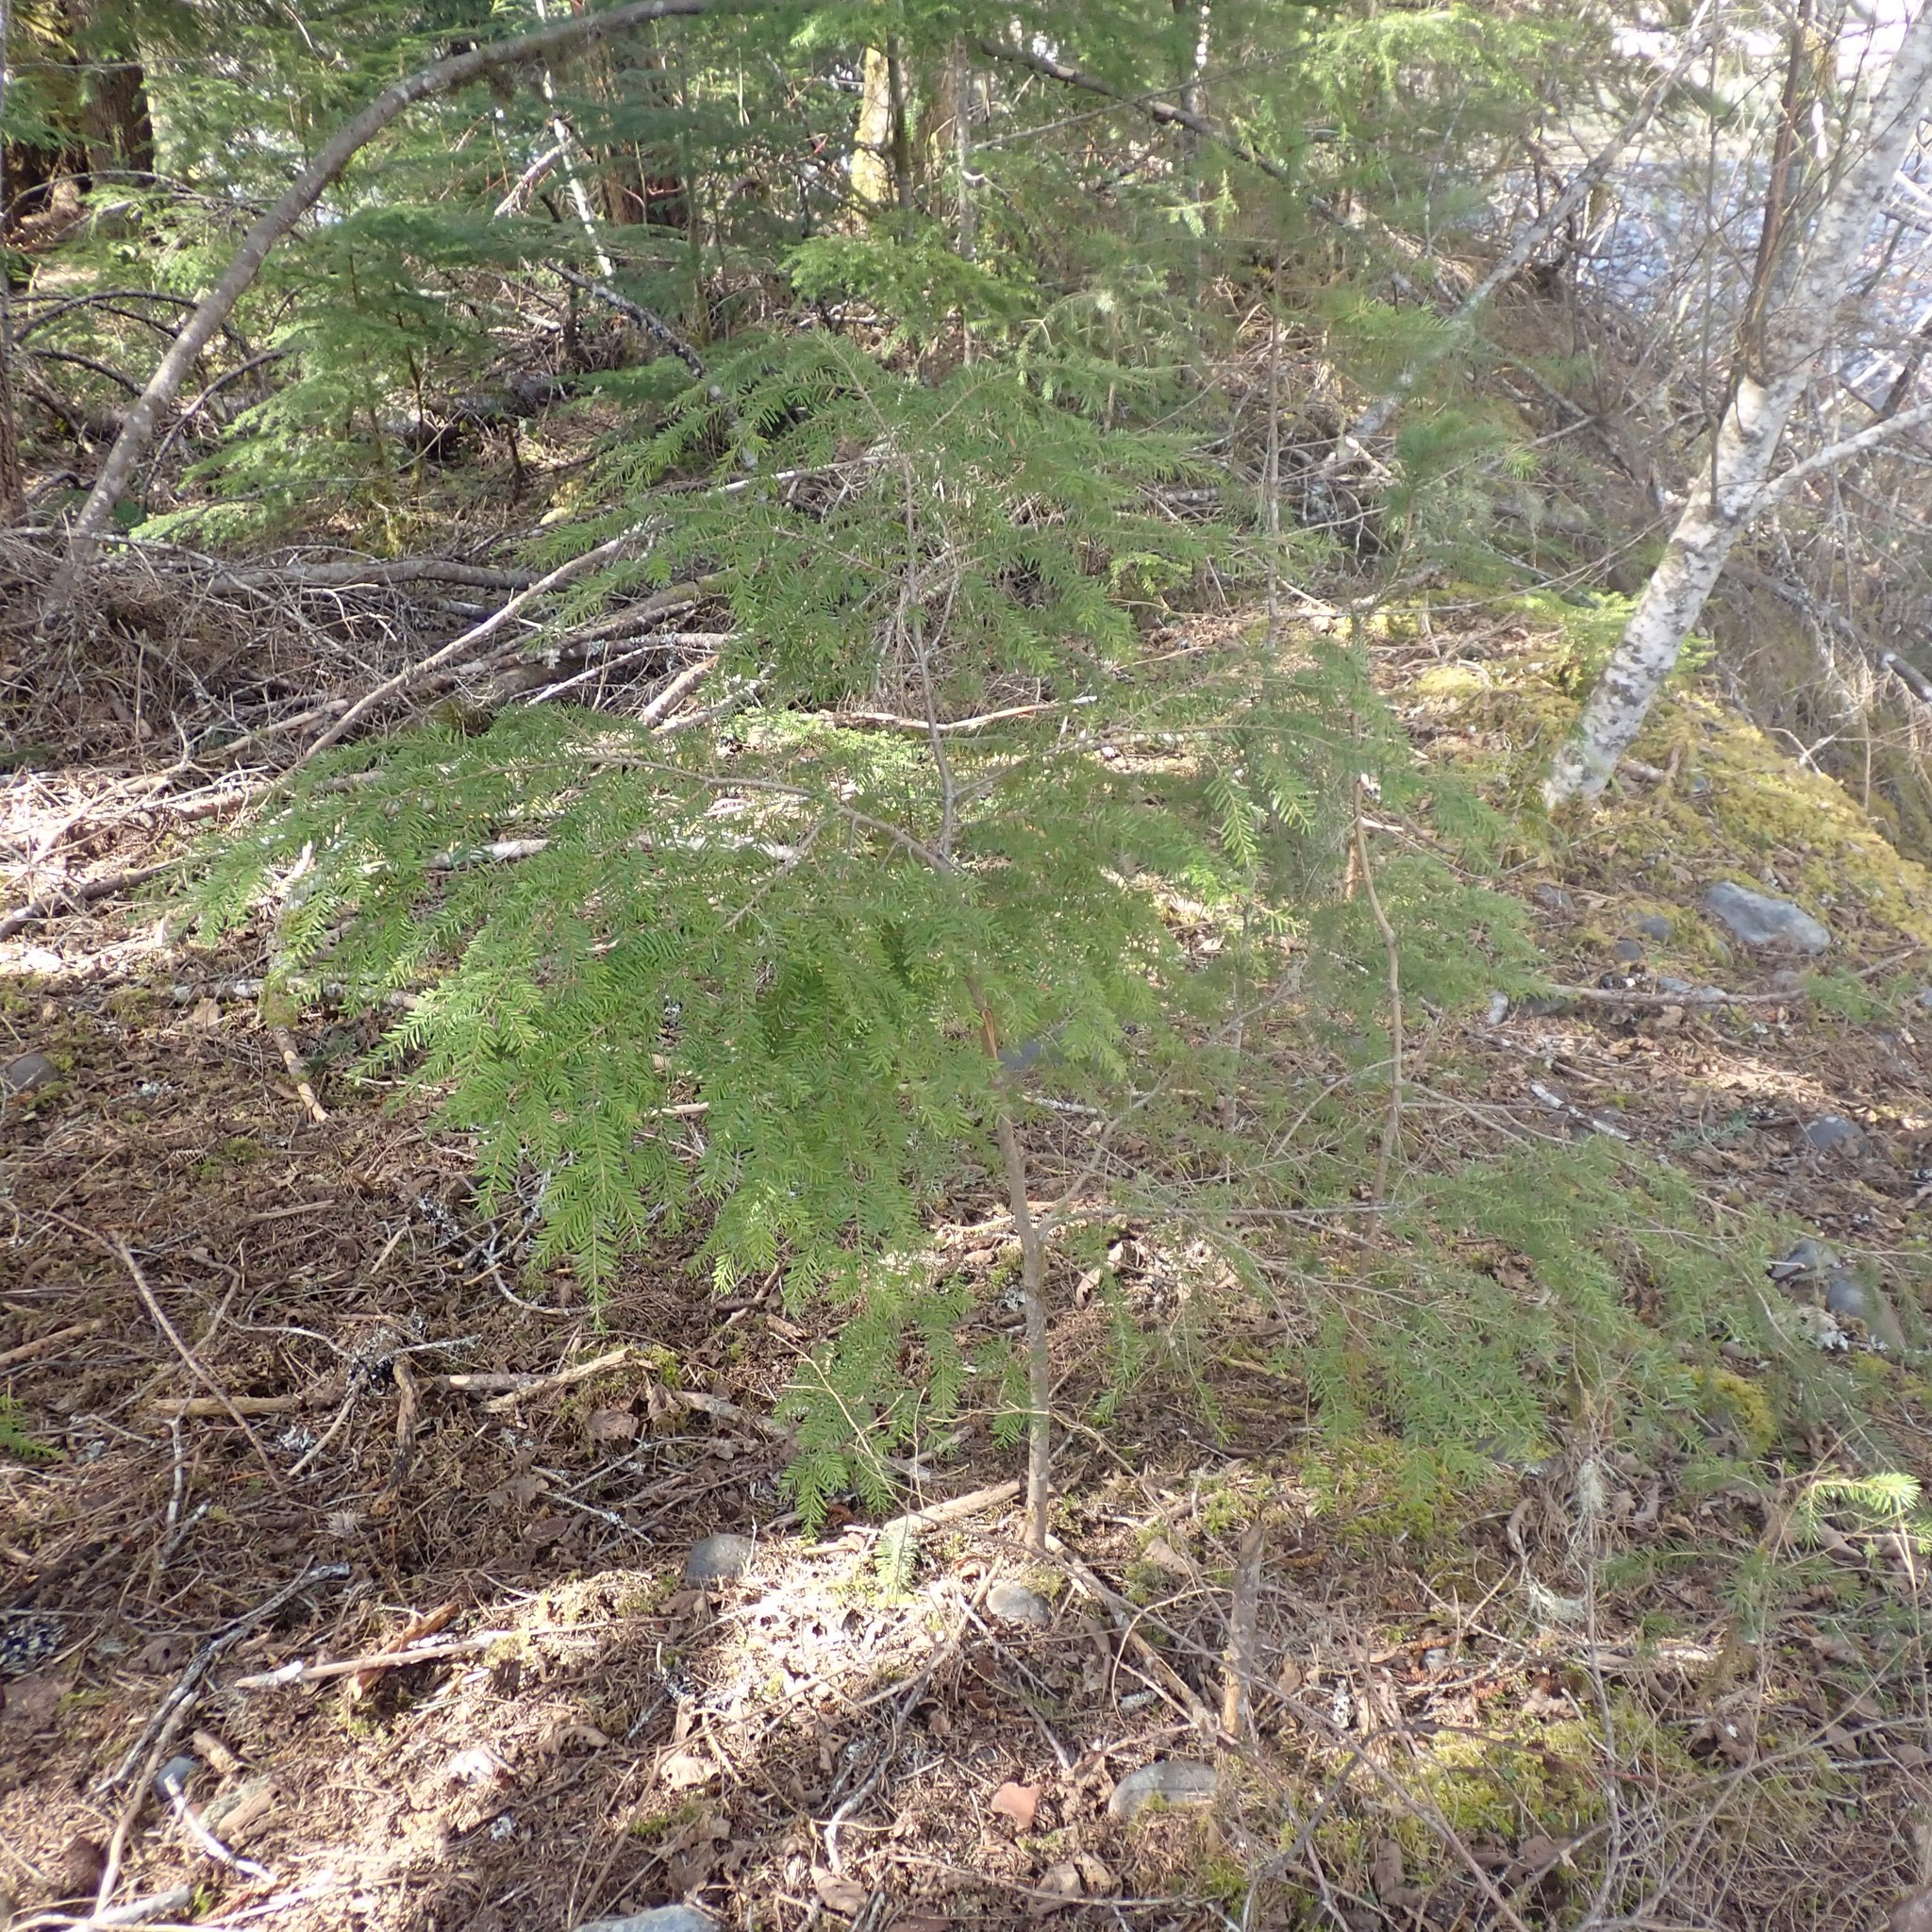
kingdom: Plantae
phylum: Tracheophyta
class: Pinopsida
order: Pinales
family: Pinaceae
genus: Tsuga
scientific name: Tsuga heterophylla
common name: Western hemlock
